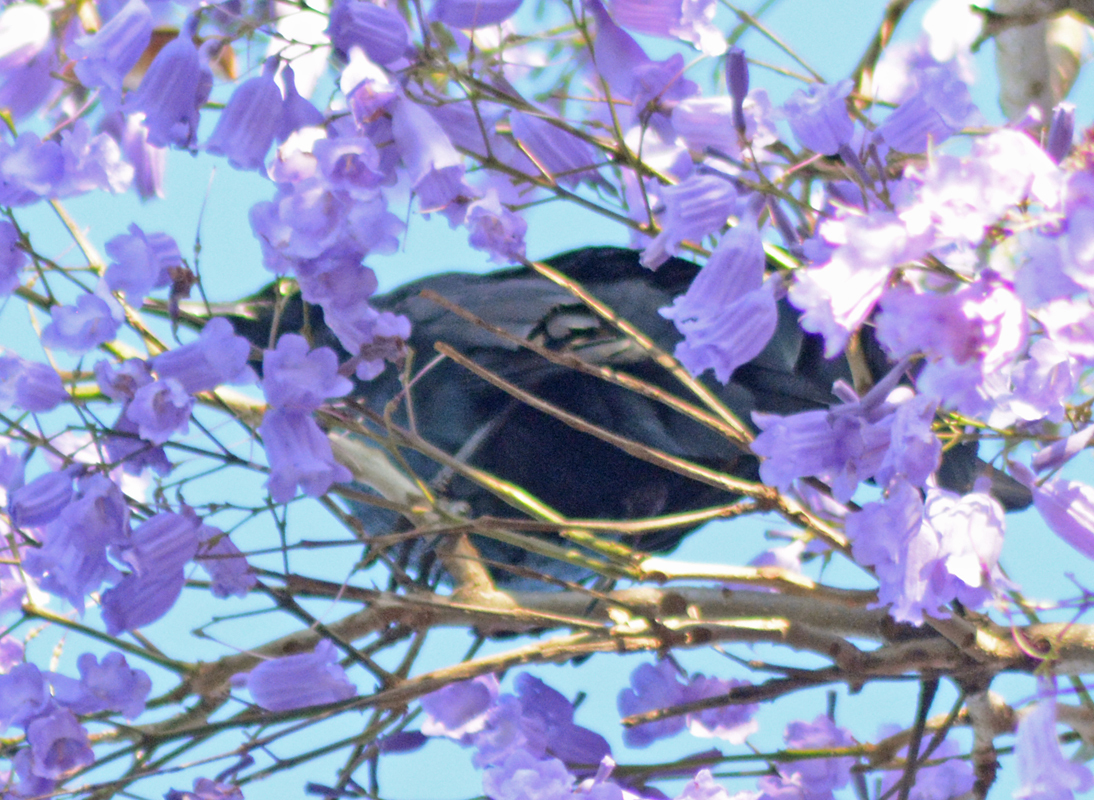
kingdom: Animalia
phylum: Chordata
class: Aves
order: Passeriformes
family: Icteridae
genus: Quiscalus
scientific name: Quiscalus mexicanus
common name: Great-tailed grackle
